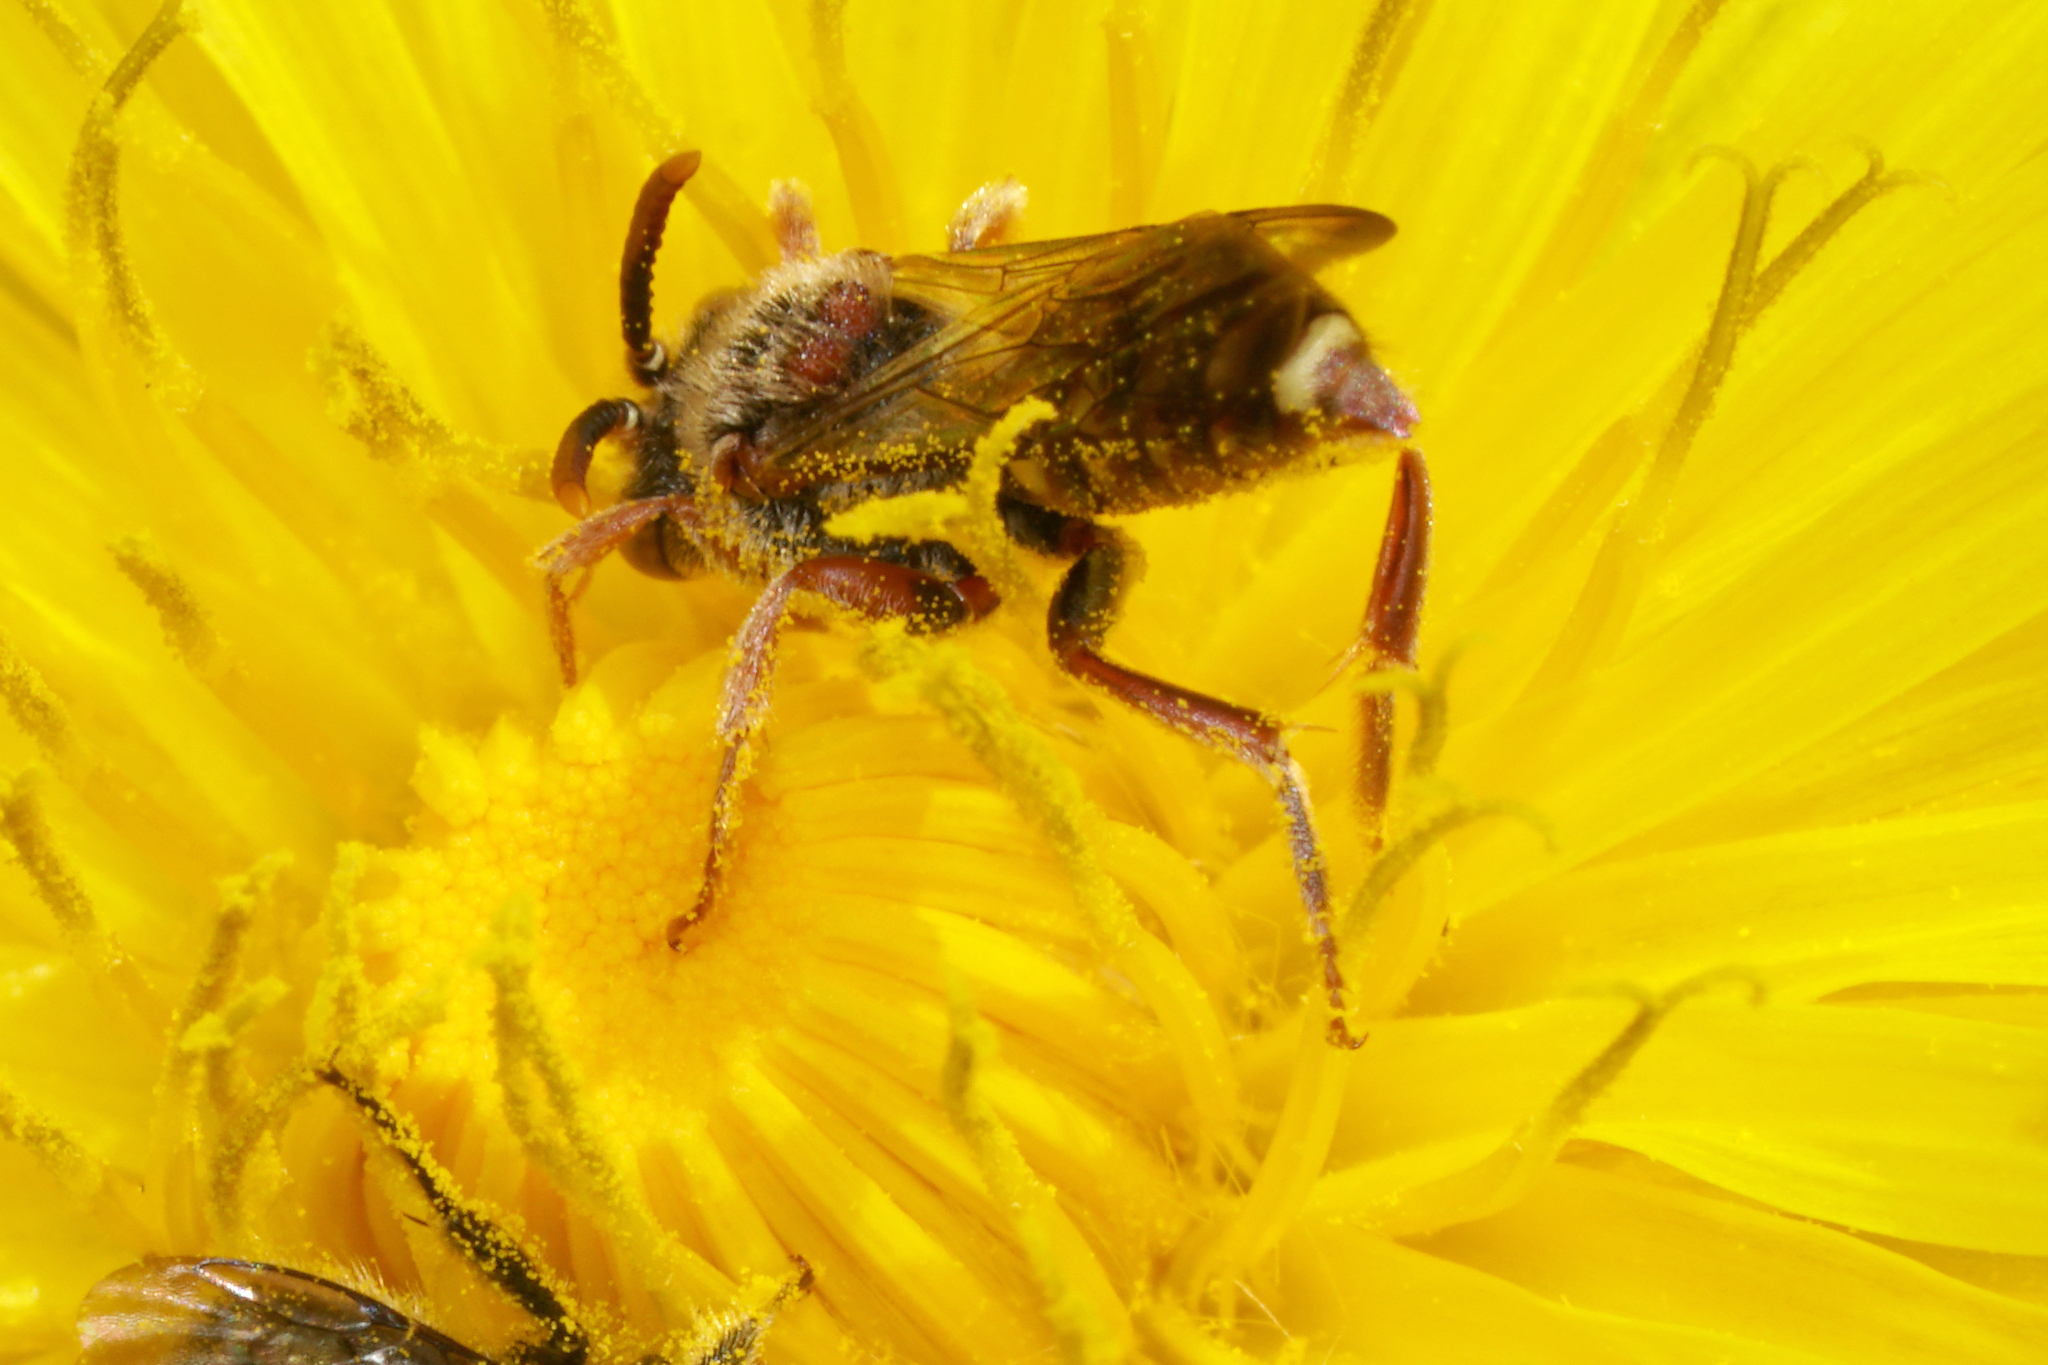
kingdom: Animalia
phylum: Arthropoda
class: Insecta
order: Hymenoptera
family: Apidae
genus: Nomada
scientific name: Nomada denticulata
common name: Denticulate nomad
